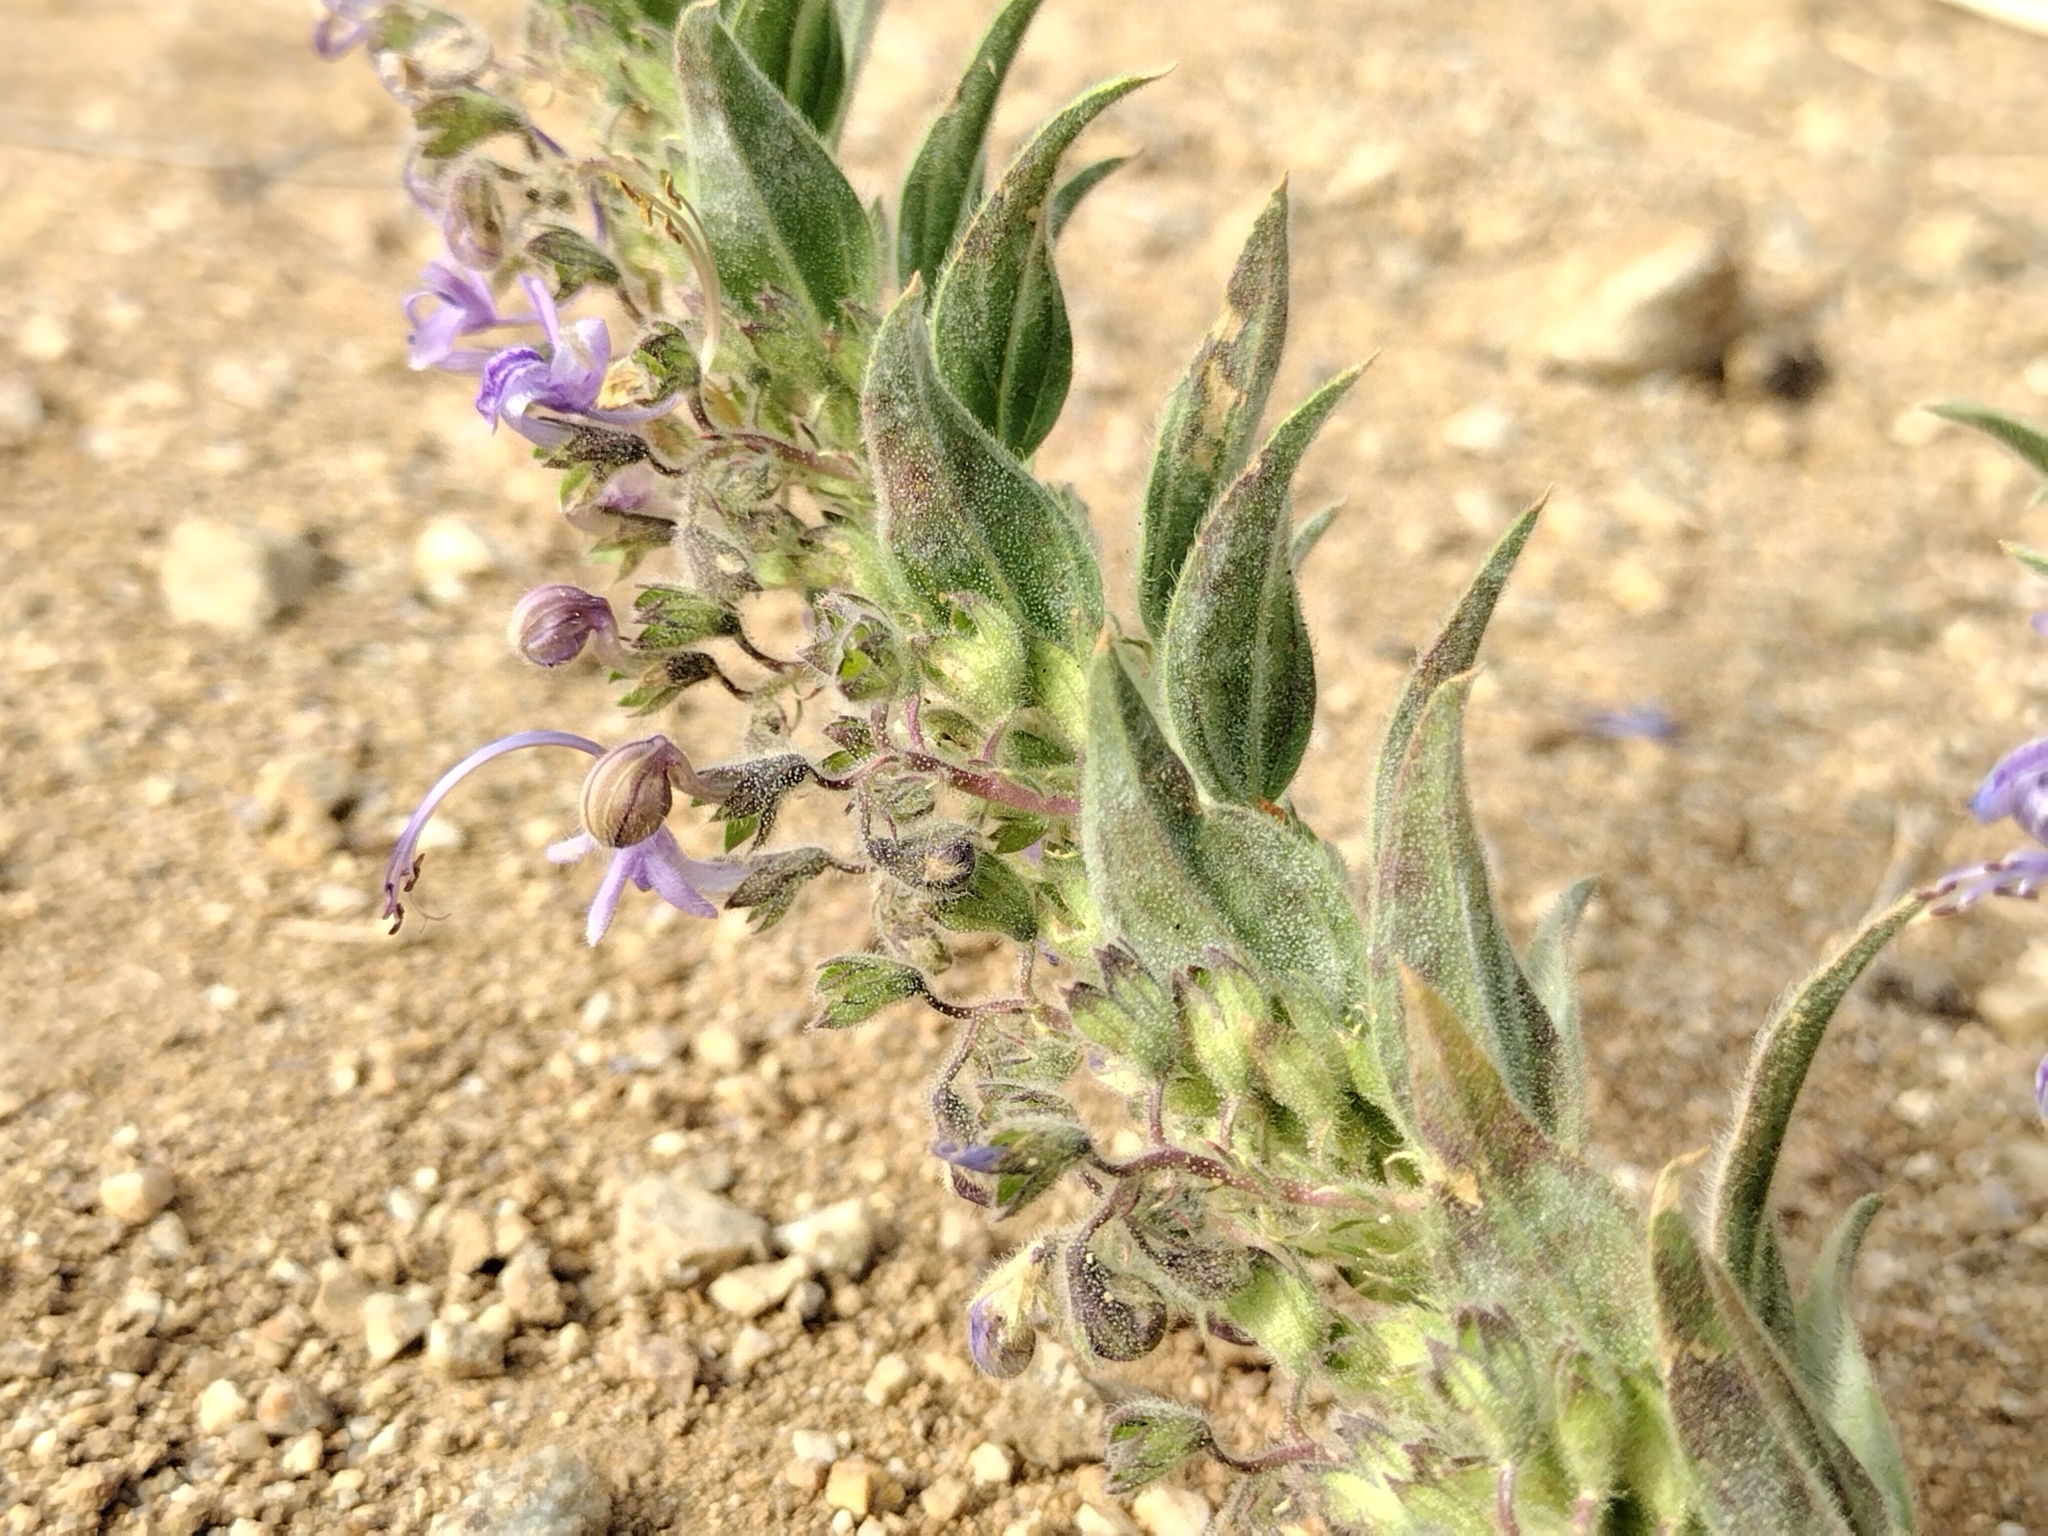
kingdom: Plantae
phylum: Tracheophyta
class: Magnoliopsida
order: Lamiales
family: Lamiaceae
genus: Trichostema
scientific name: Trichostema lanceolatum
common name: Vinegar-weed
